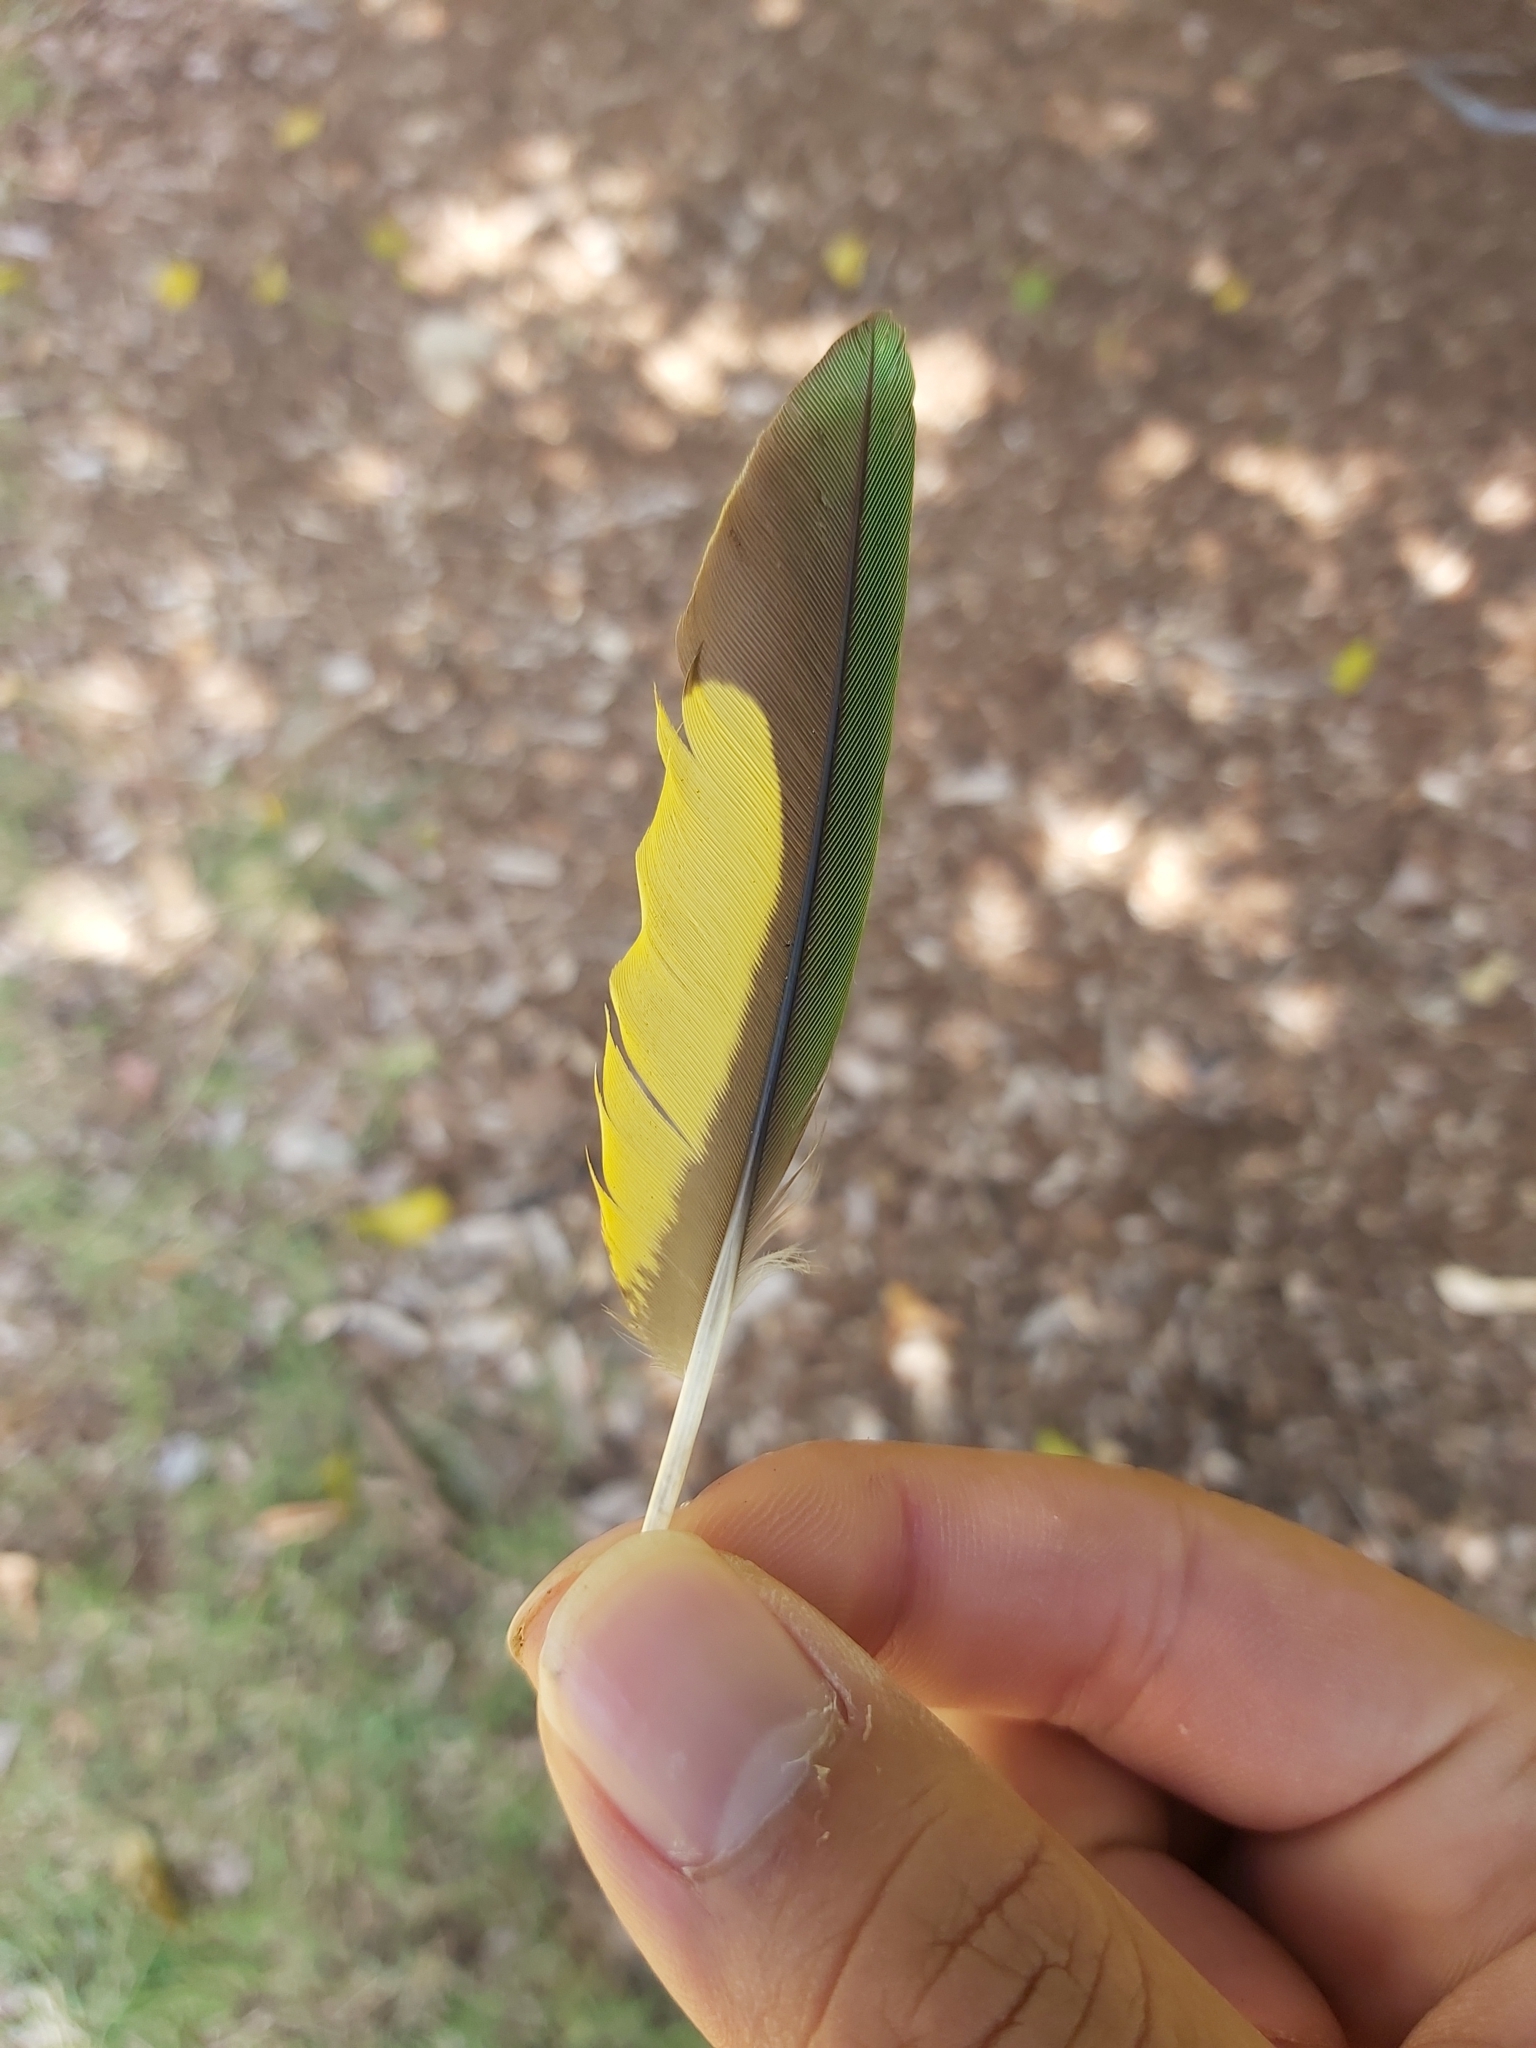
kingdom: Animalia
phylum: Chordata
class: Aves
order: Psittaciformes
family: Psittacidae
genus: Trichoglossus
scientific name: Trichoglossus haematodus
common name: Coconut lorikeet
